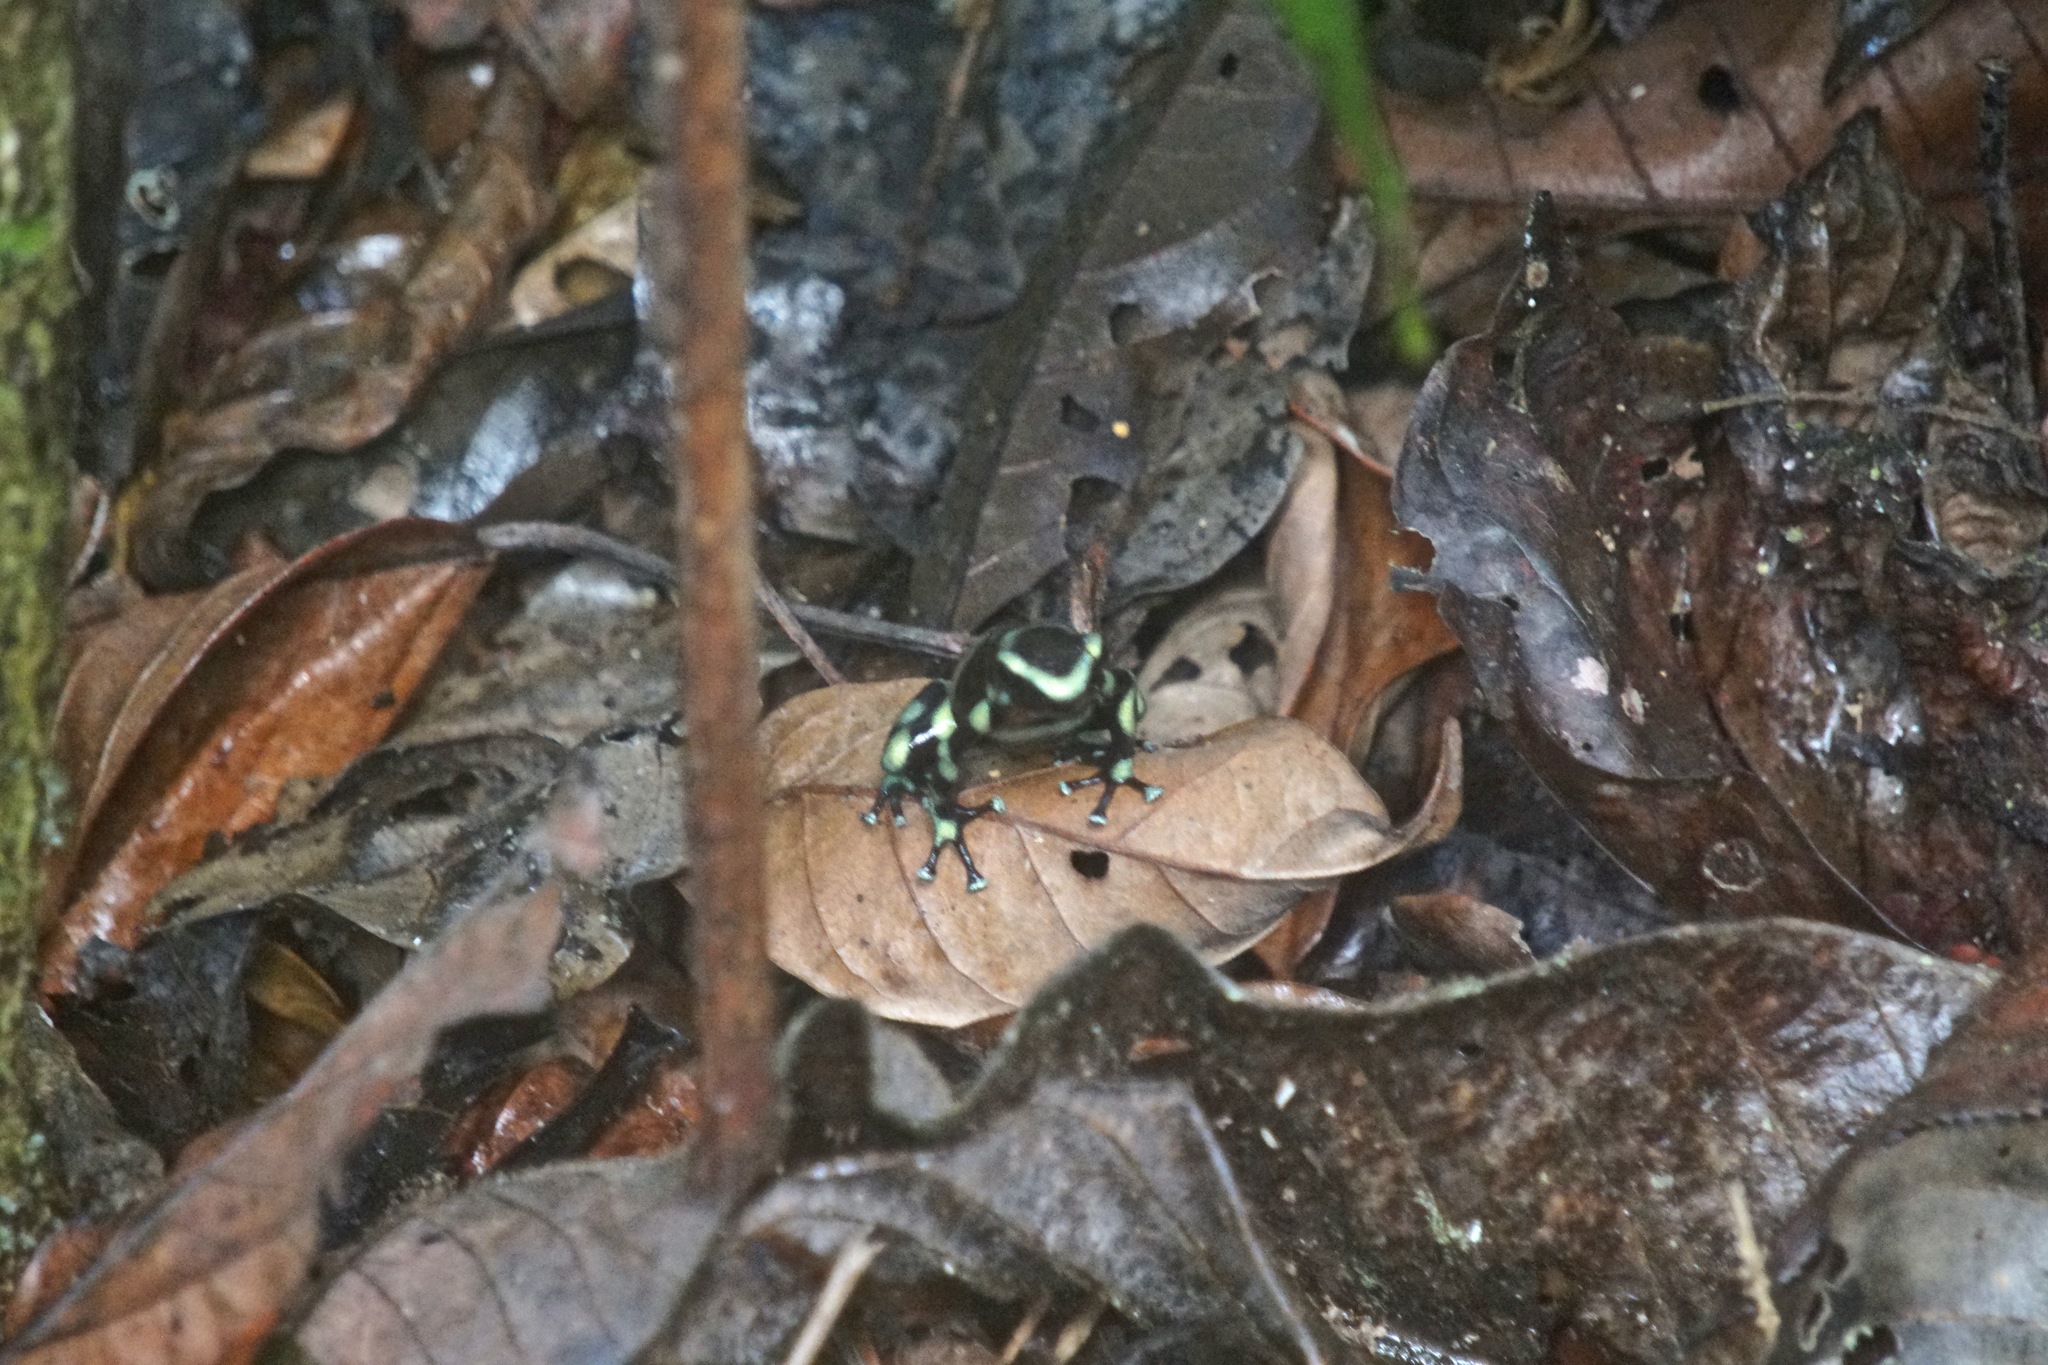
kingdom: Animalia
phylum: Chordata
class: Amphibia
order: Anura
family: Dendrobatidae
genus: Dendrobates
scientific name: Dendrobates auratus
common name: Green and black poison dart frog
